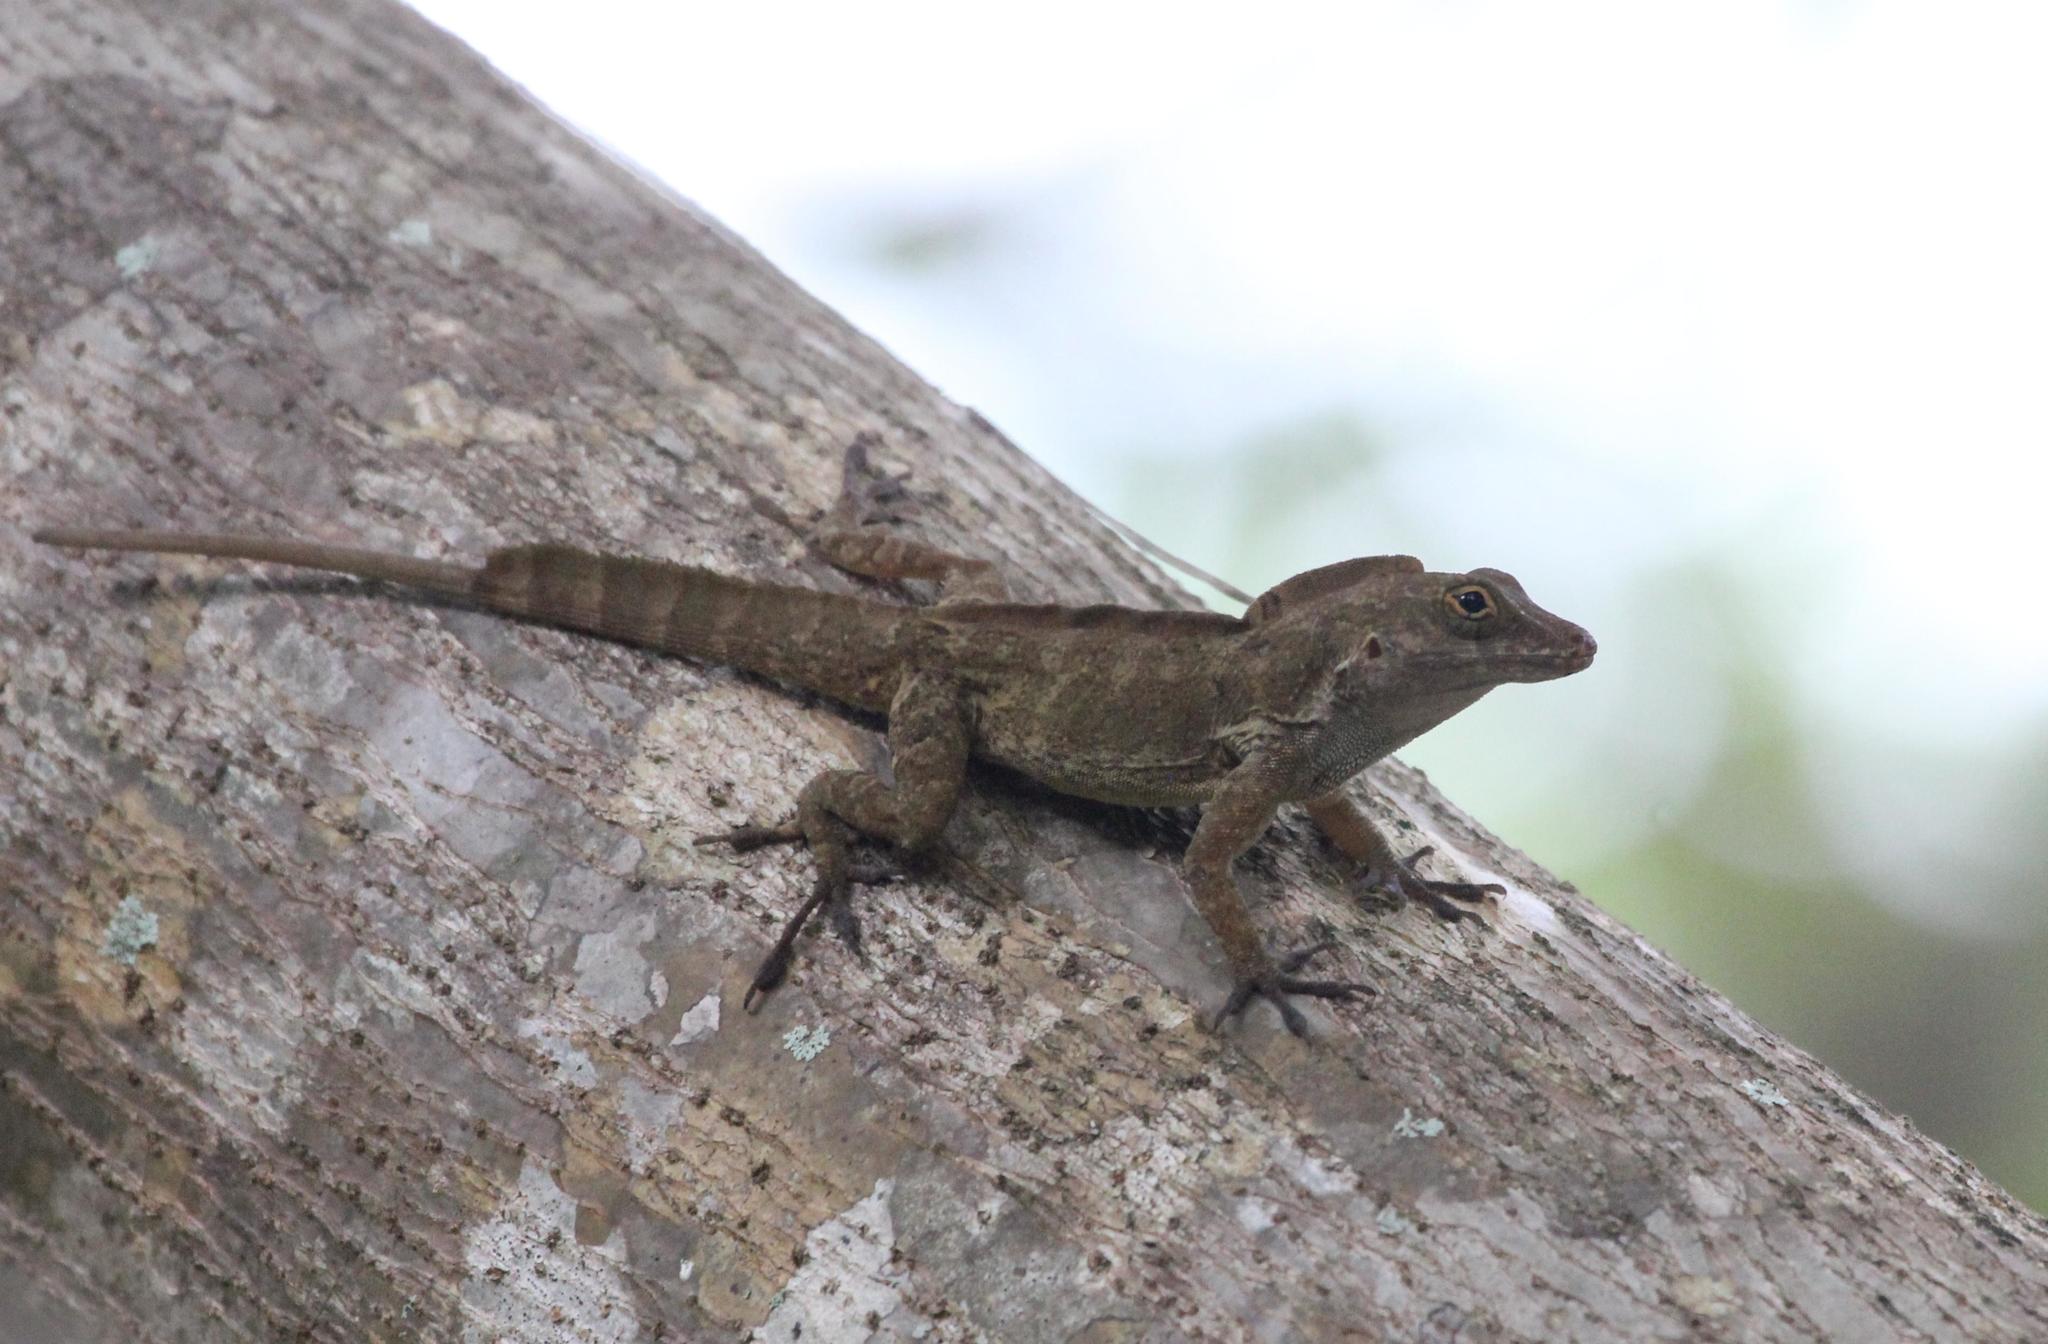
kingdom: Animalia
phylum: Chordata
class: Squamata
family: Dactyloidae
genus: Anolis
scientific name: Anolis cristatellus
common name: Crested anole
